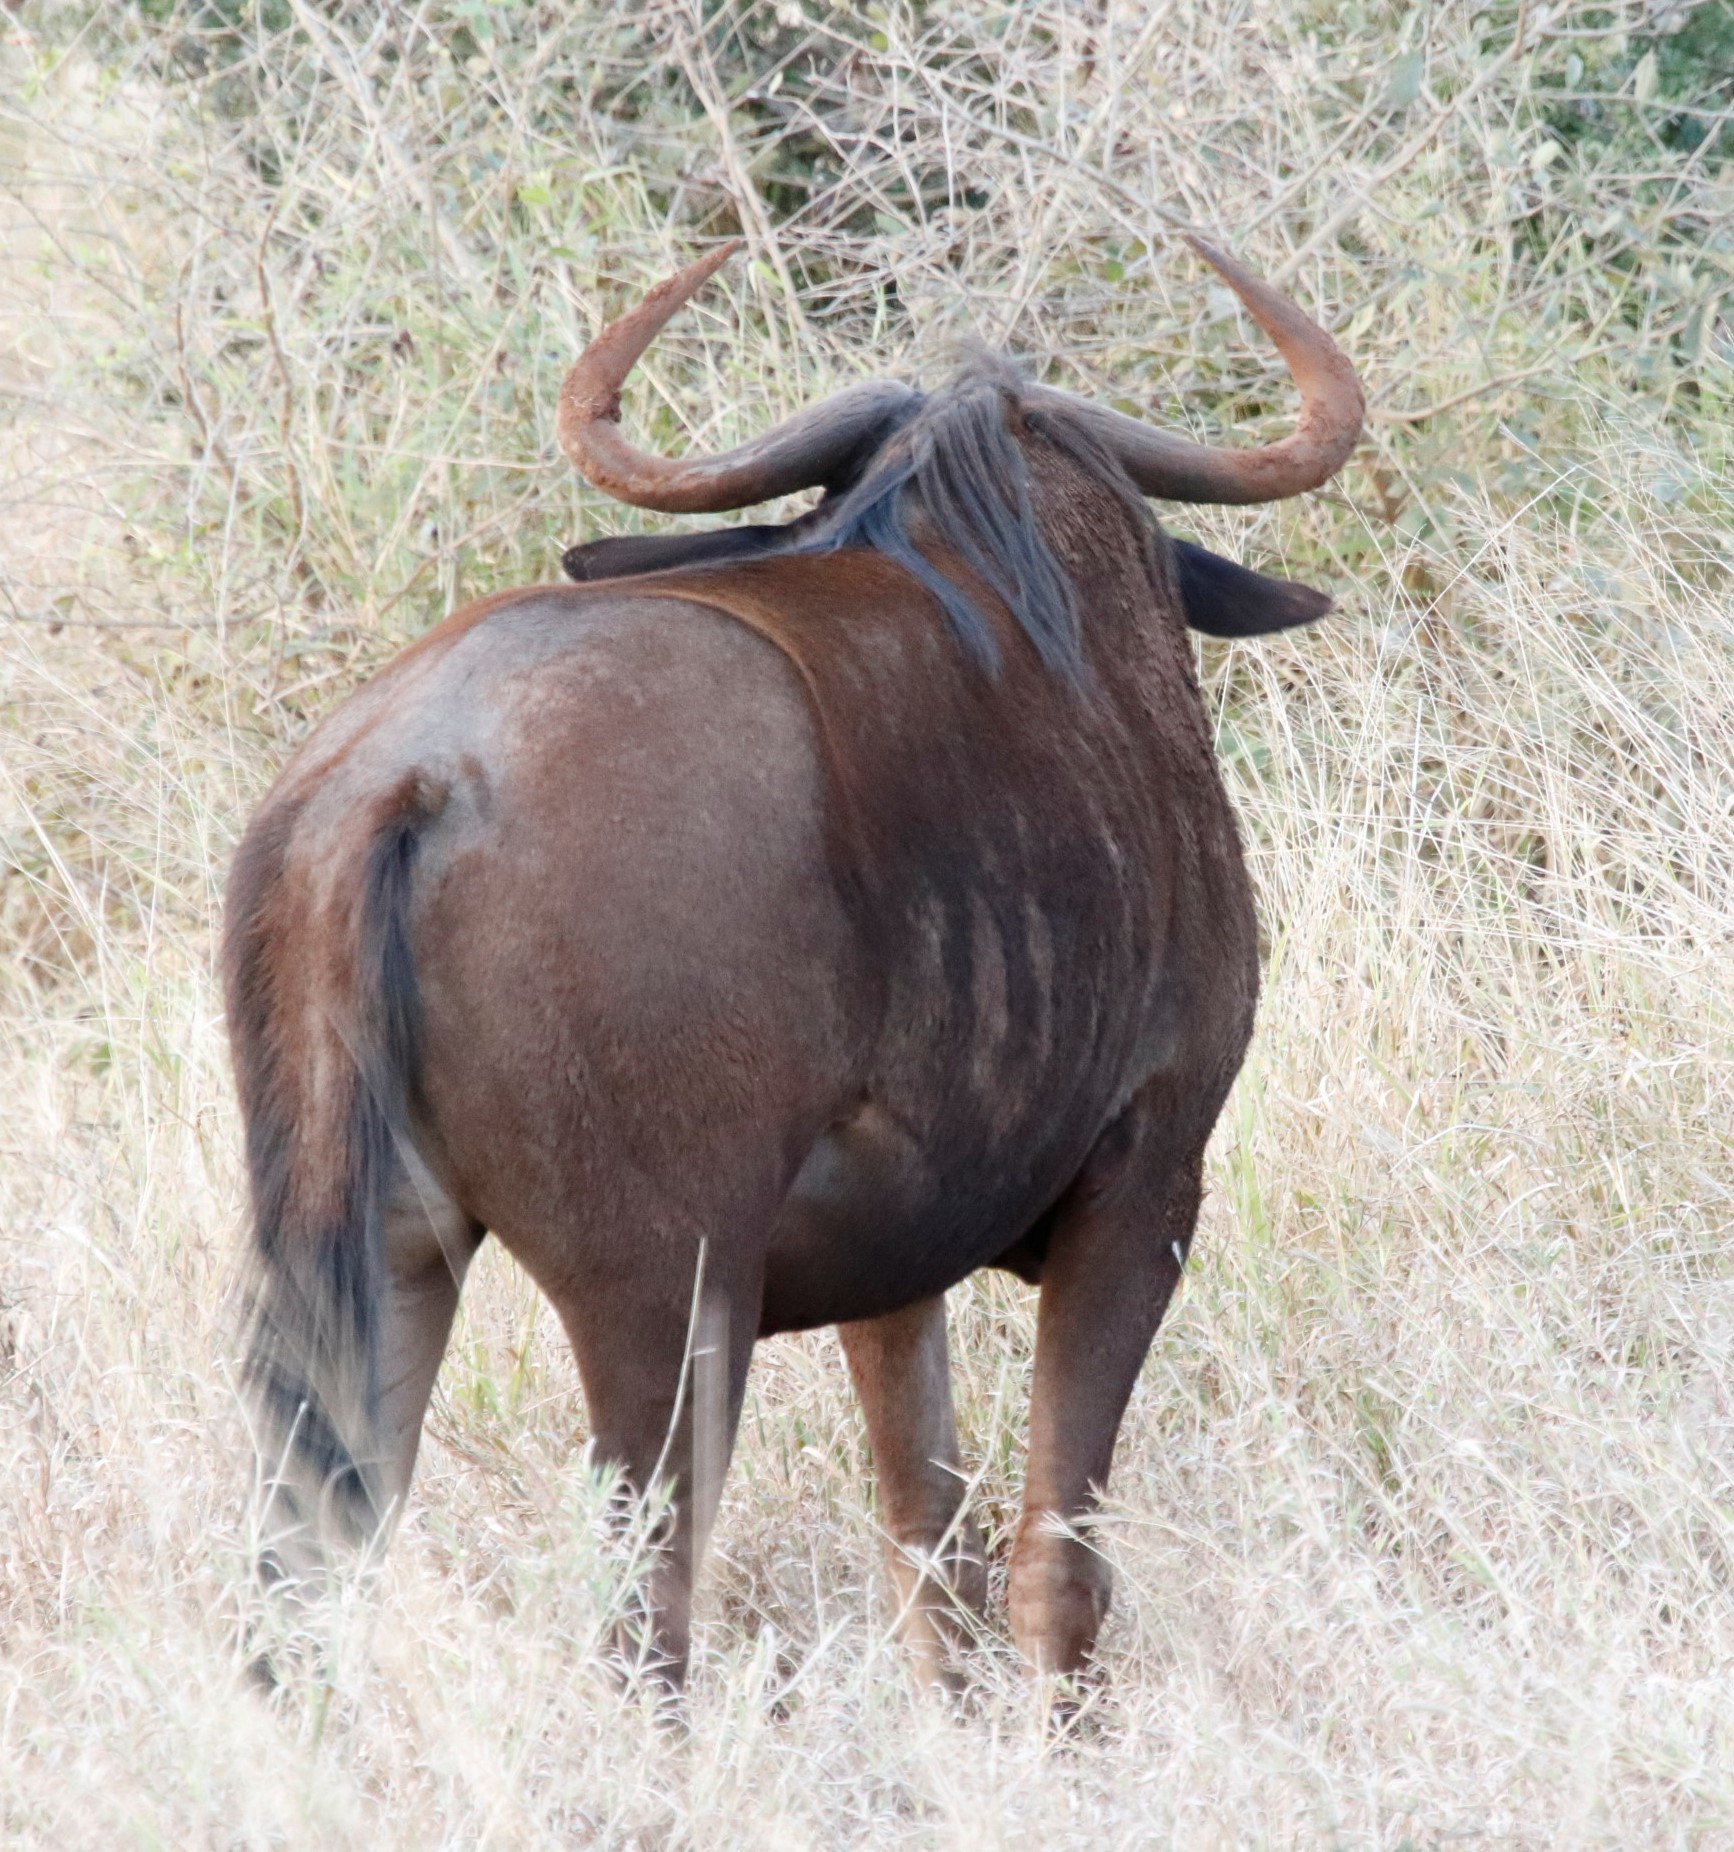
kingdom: Animalia
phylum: Chordata
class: Mammalia
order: Artiodactyla
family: Bovidae
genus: Connochaetes
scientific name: Connochaetes taurinus
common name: Blue wildebeest
